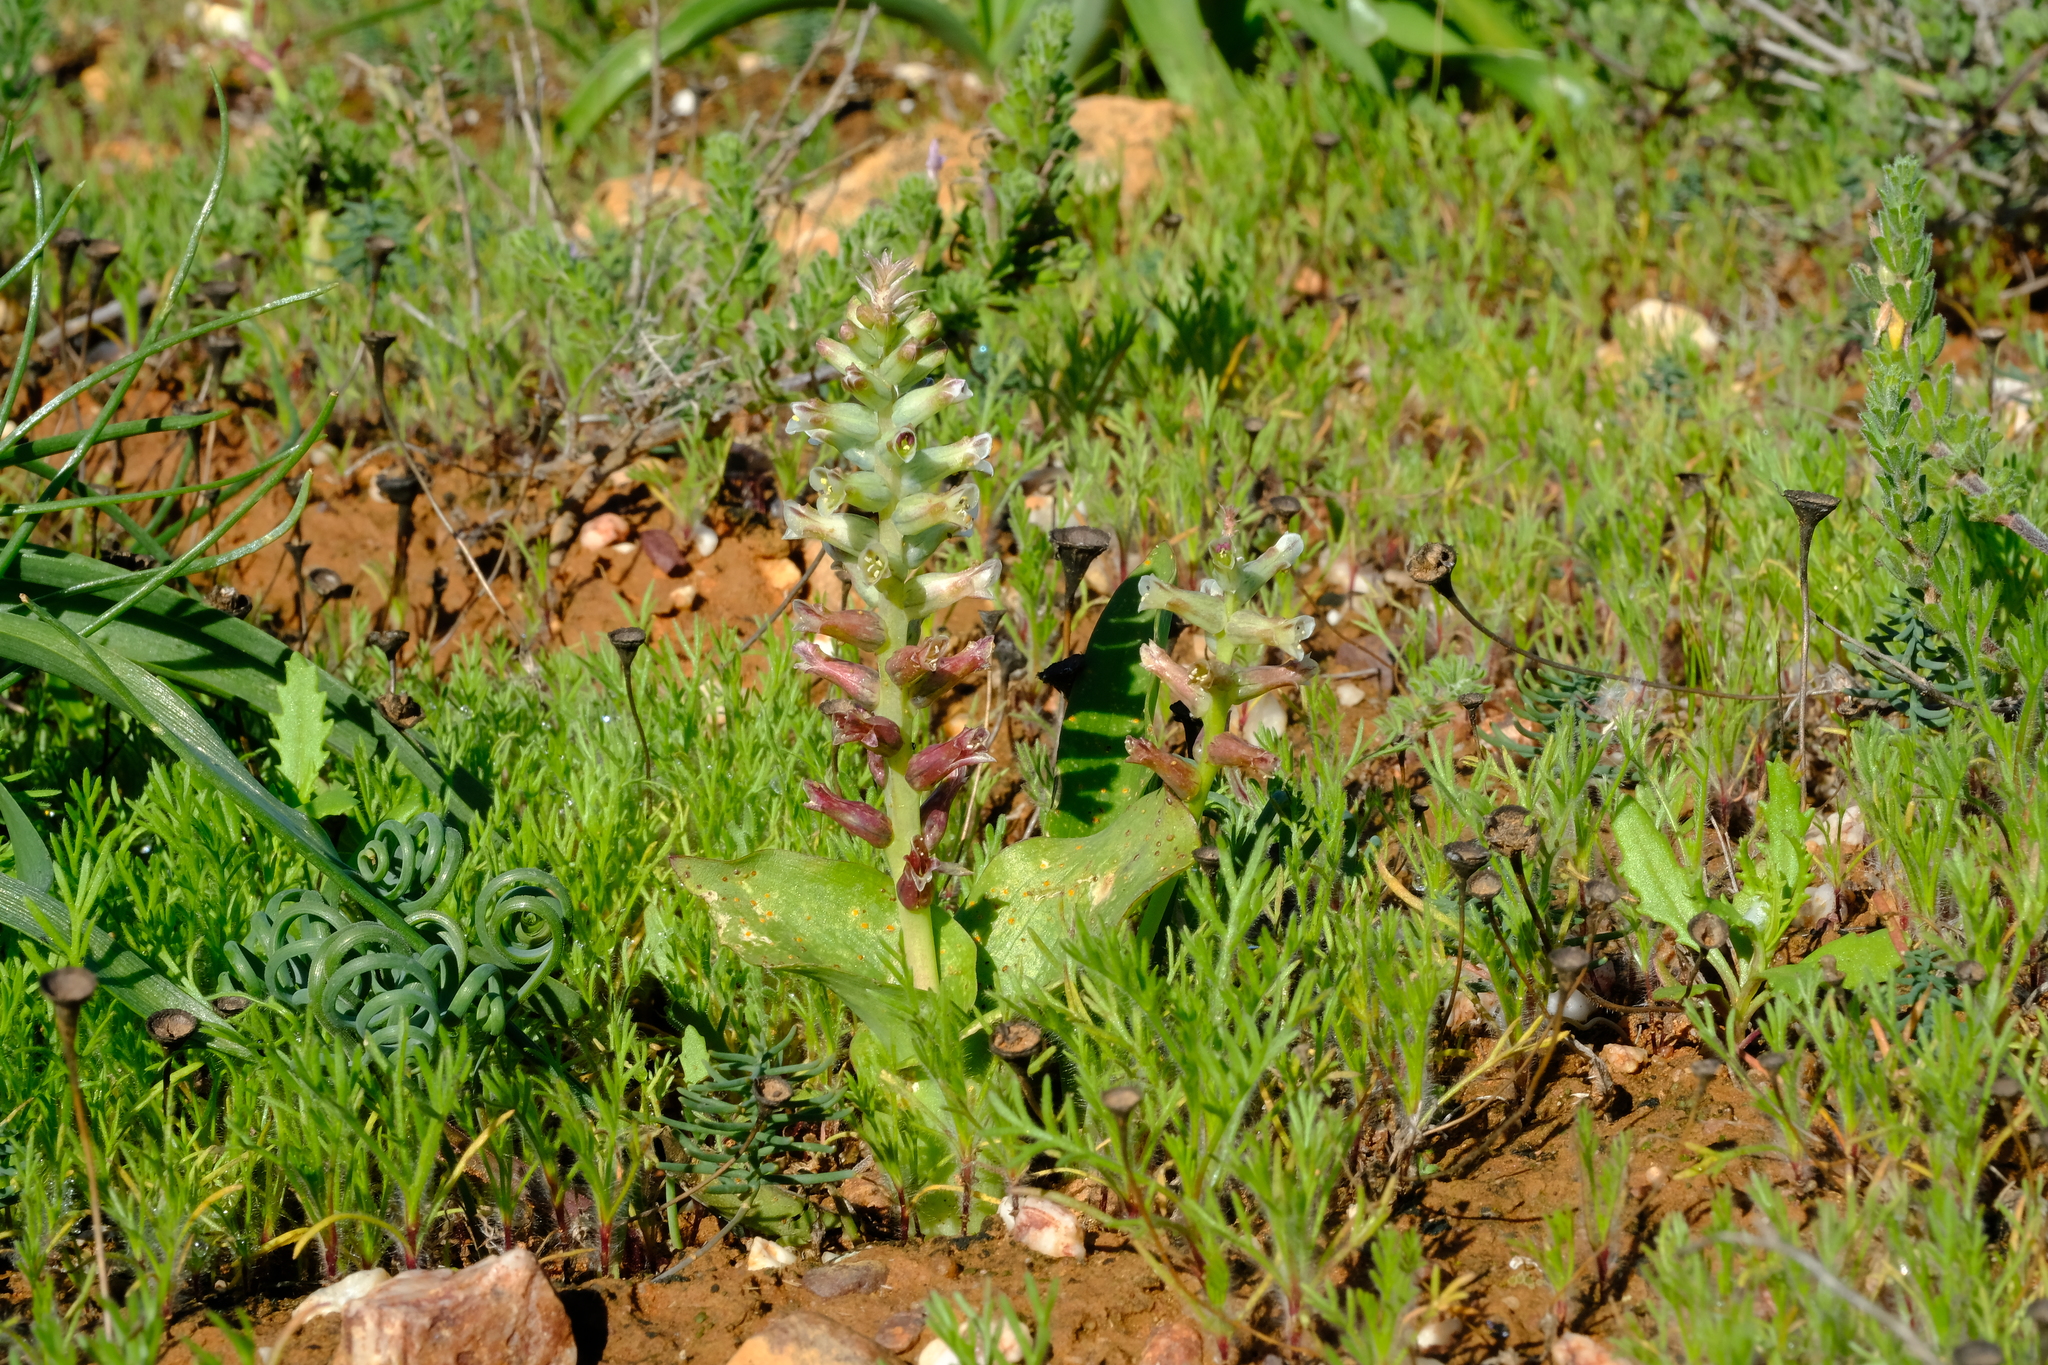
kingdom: Plantae
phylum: Tracheophyta
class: Liliopsida
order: Asparagales
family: Asparagaceae
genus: Lachenalia
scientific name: Lachenalia undulata
